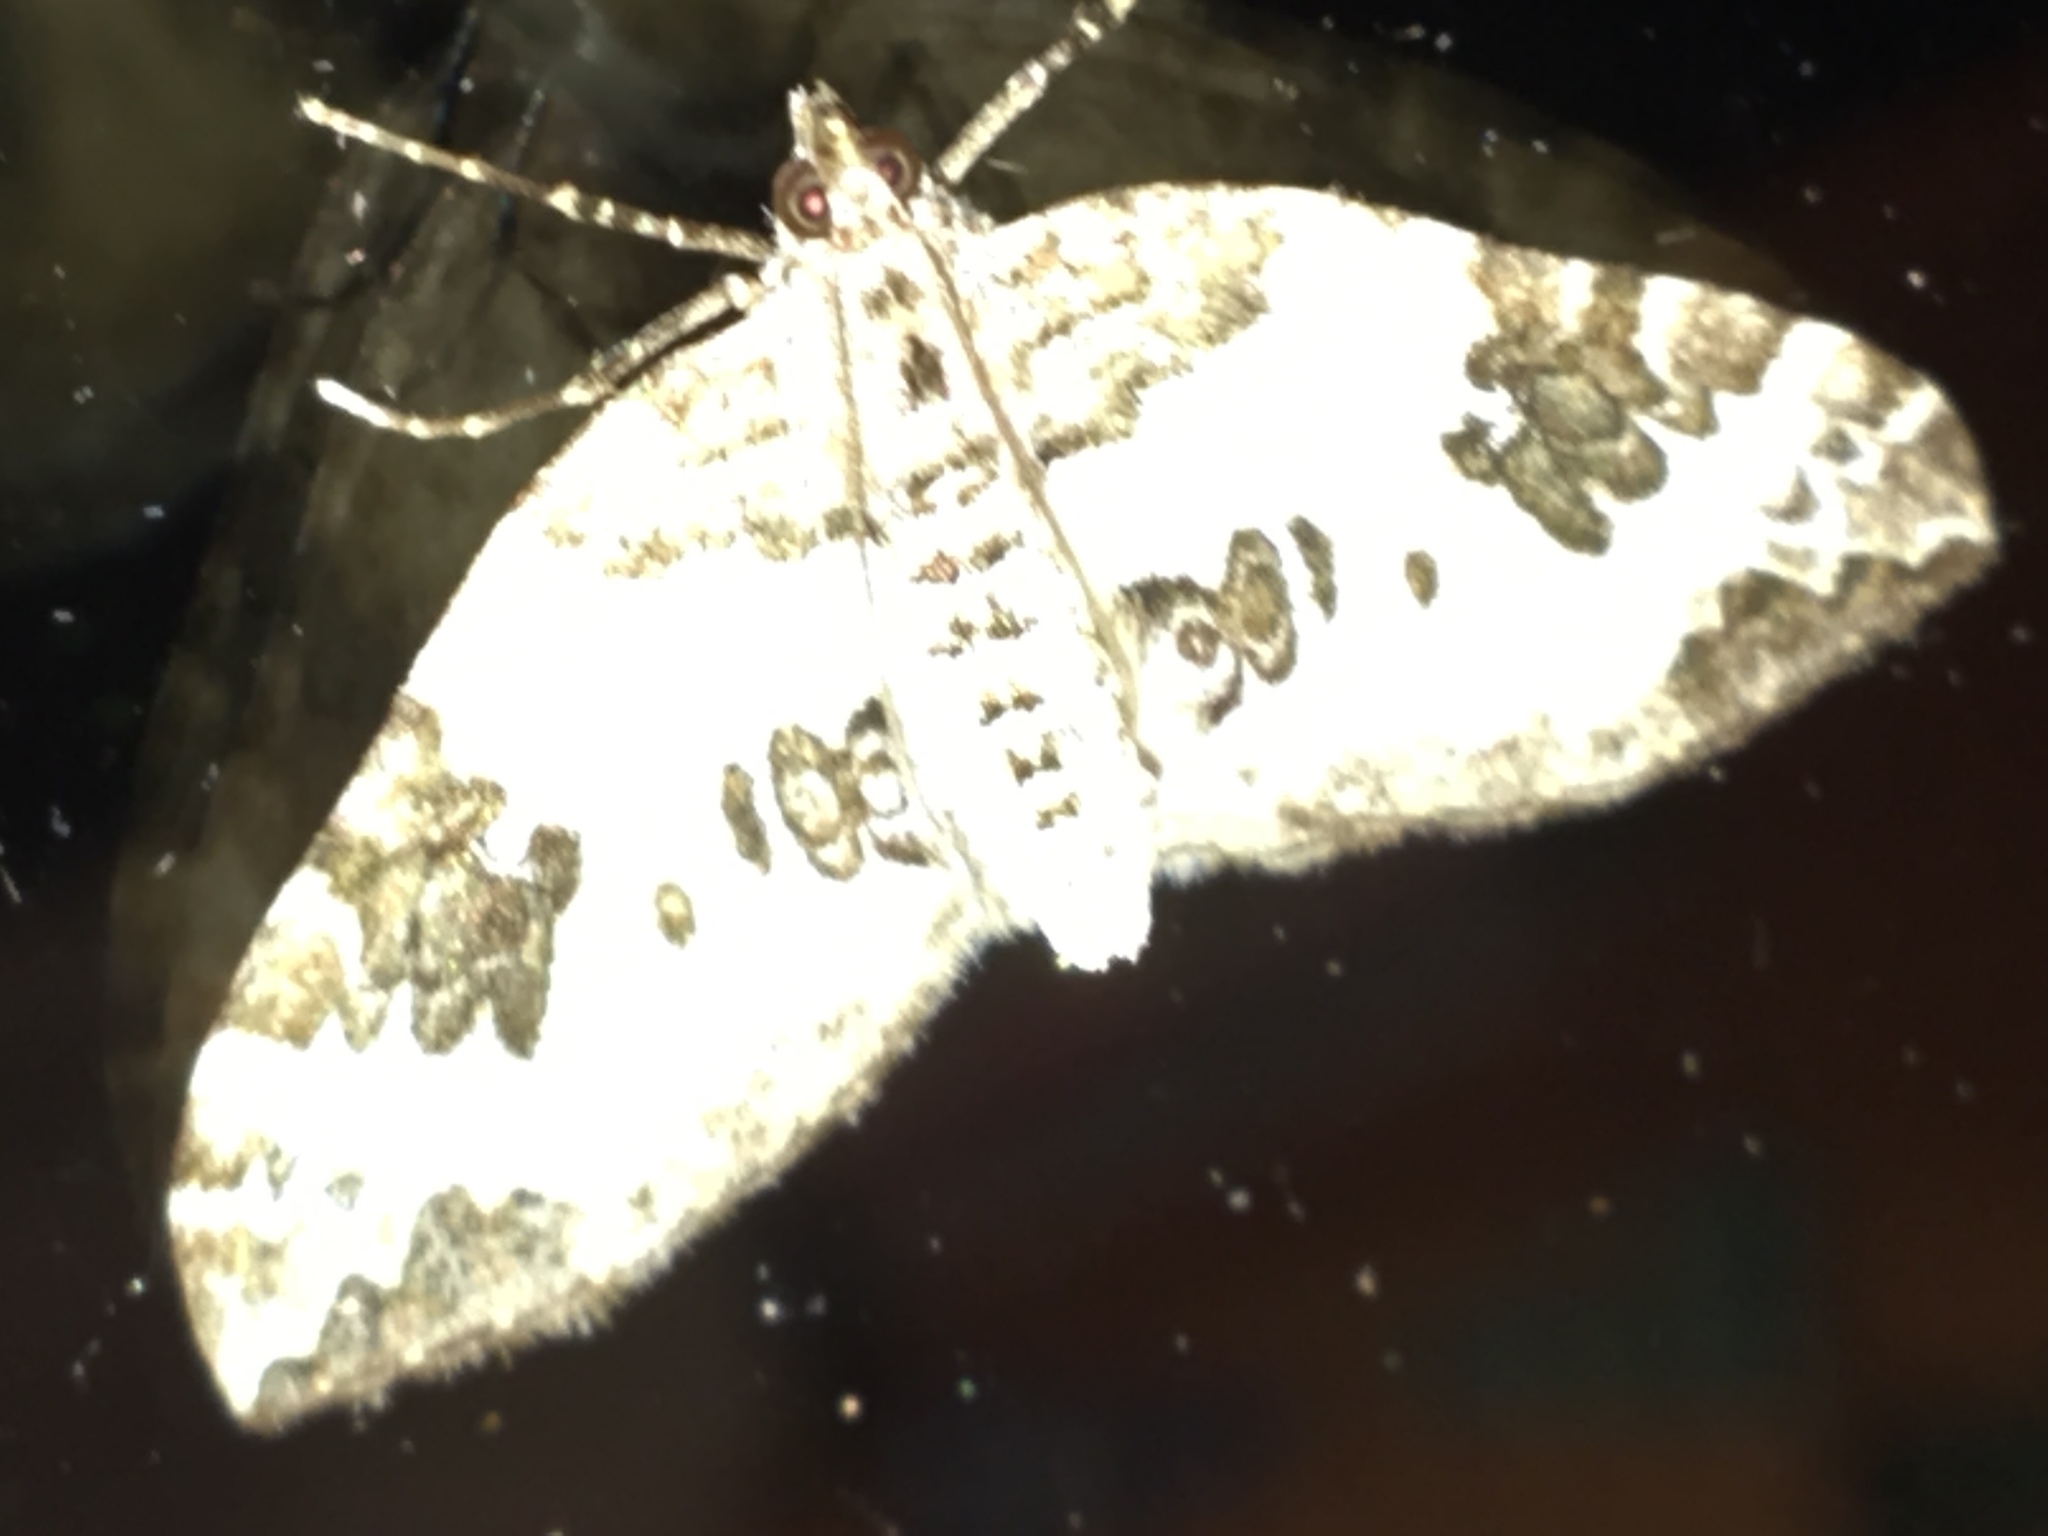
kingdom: Animalia
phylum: Arthropoda
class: Insecta
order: Lepidoptera
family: Geometridae
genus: Eulithis
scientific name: Eulithis explanata
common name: White eulithis
